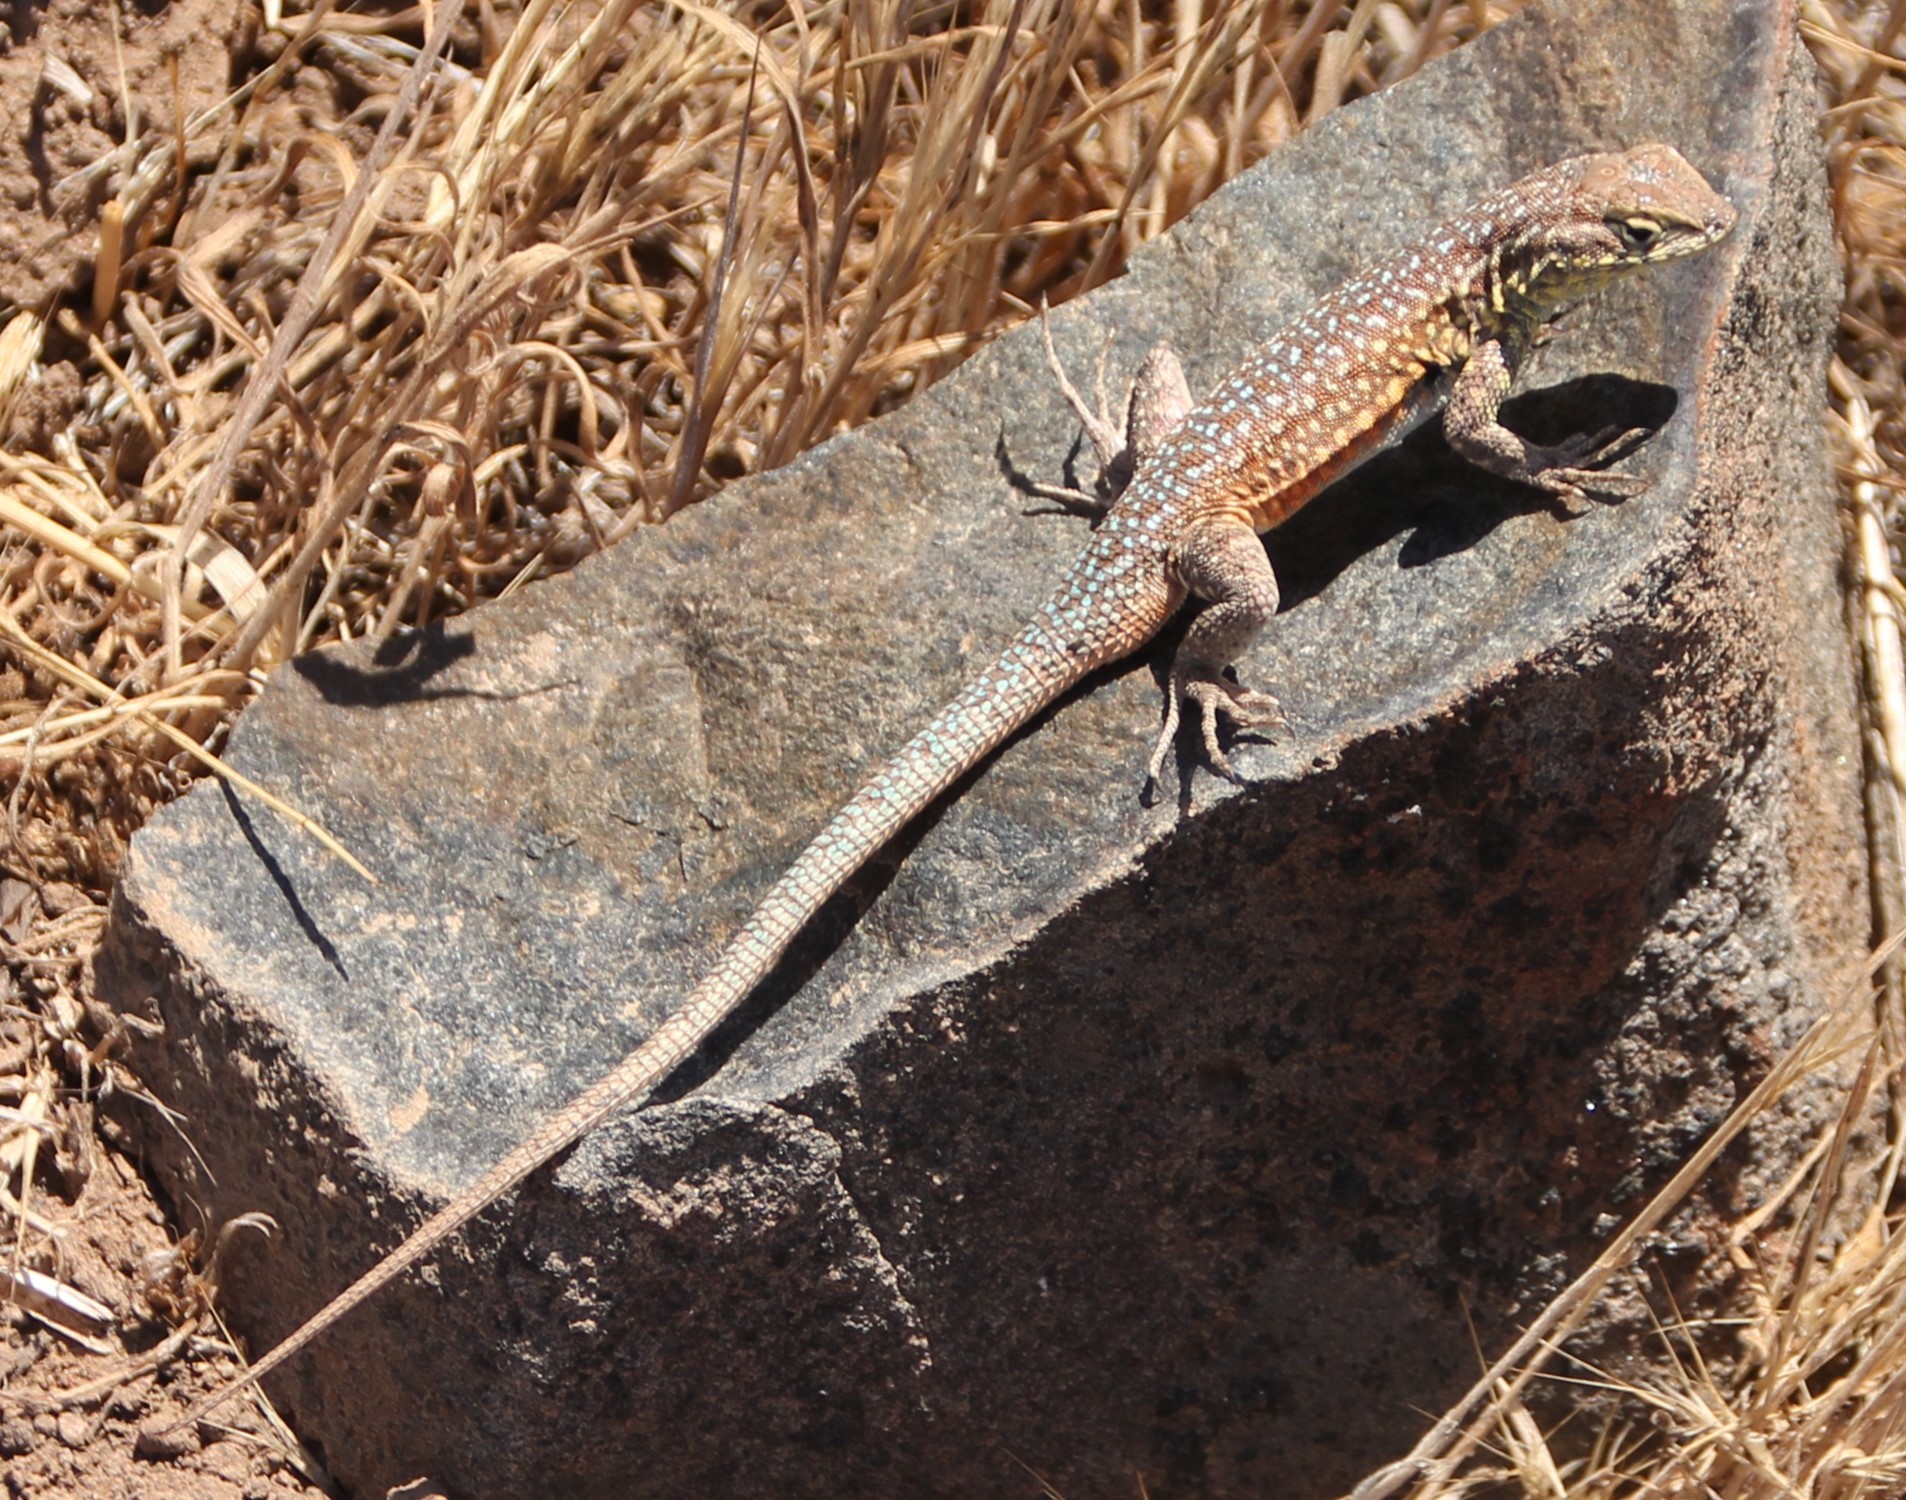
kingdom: Animalia
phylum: Chordata
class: Squamata
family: Phrynosomatidae
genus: Uta
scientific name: Uta stansburiana
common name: Side-blotched lizard
